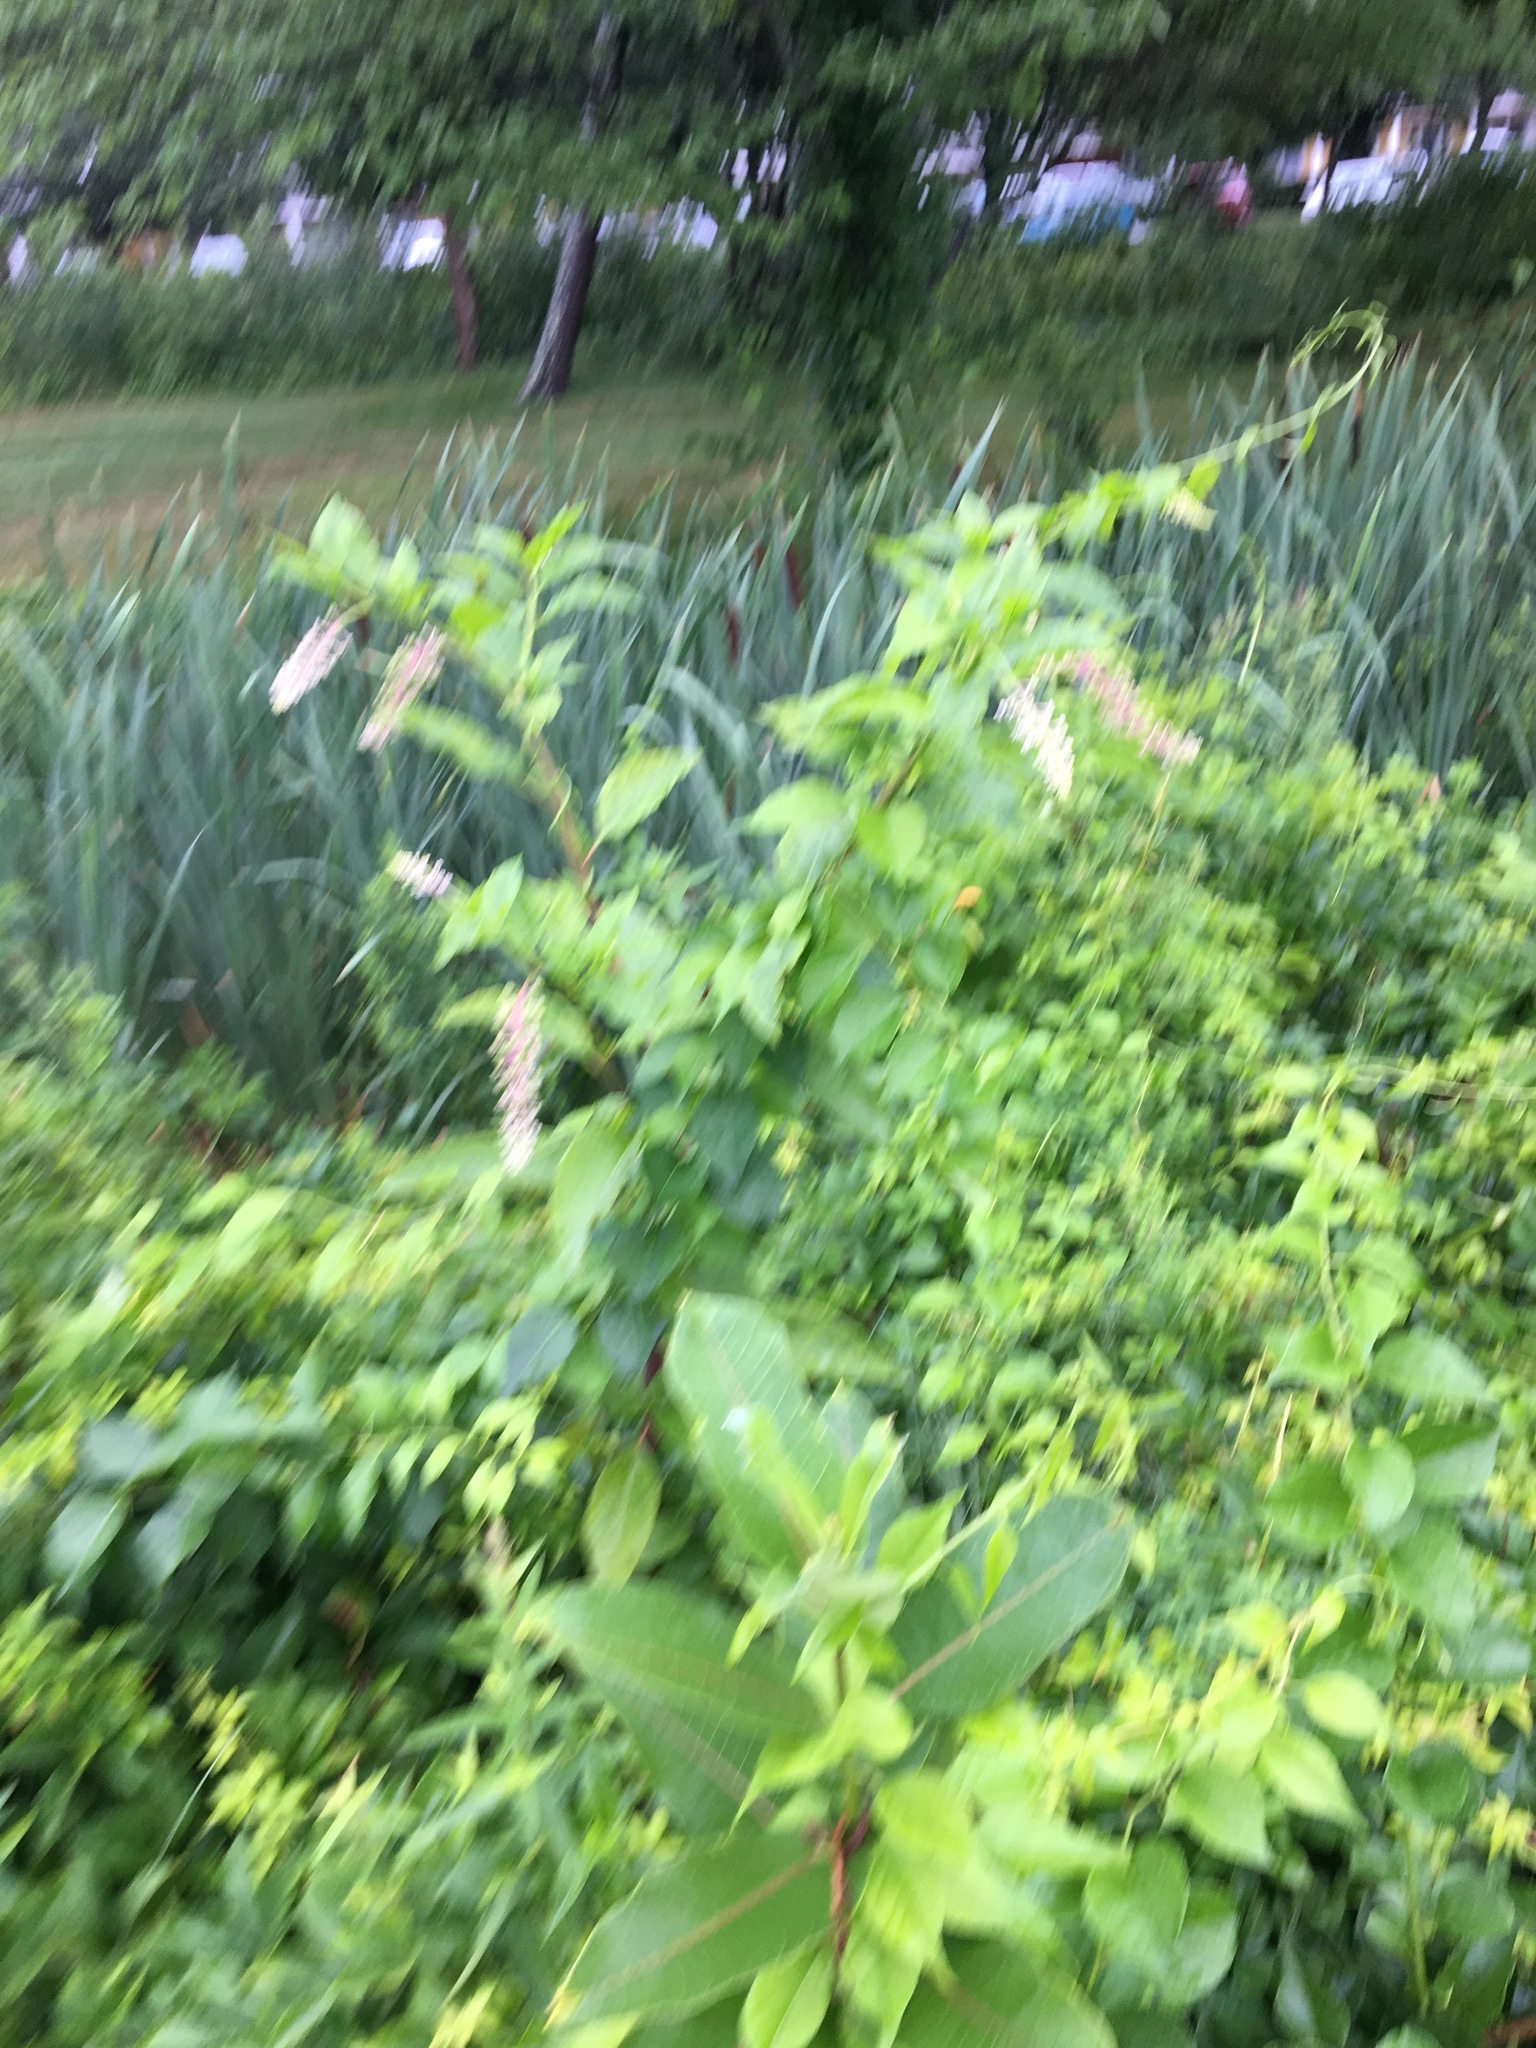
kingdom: Plantae
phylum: Tracheophyta
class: Magnoliopsida
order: Caryophyllales
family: Phytolaccaceae
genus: Phytolacca
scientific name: Phytolacca americana
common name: American pokeweed
